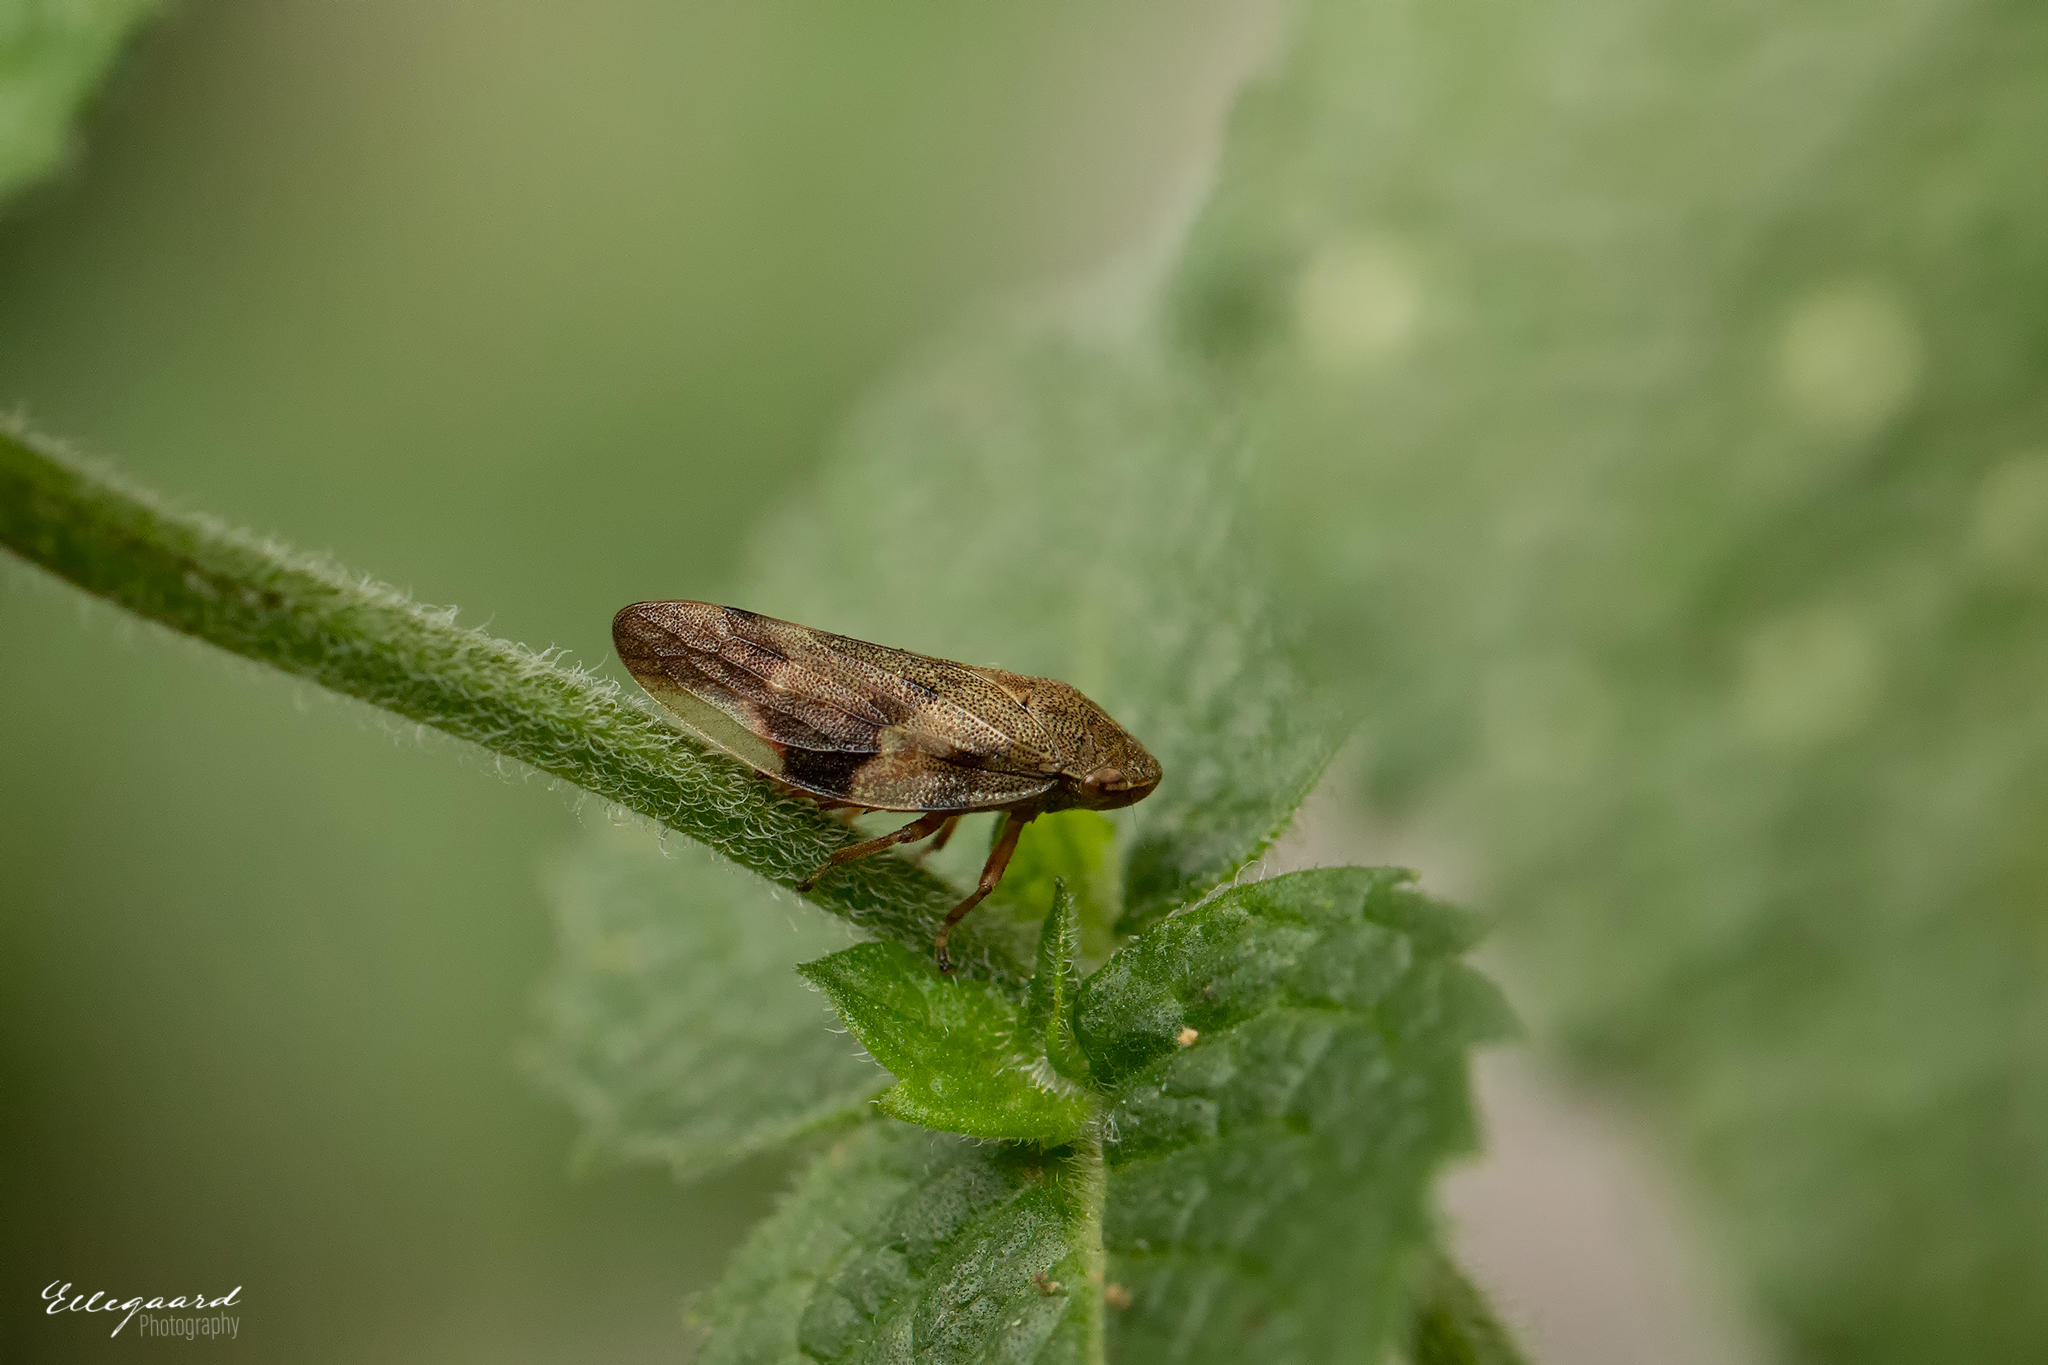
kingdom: Animalia
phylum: Arthropoda
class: Insecta
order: Hemiptera
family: Aphrophoridae
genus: Aphrophora
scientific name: Aphrophora alni
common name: European alder spittlebug
